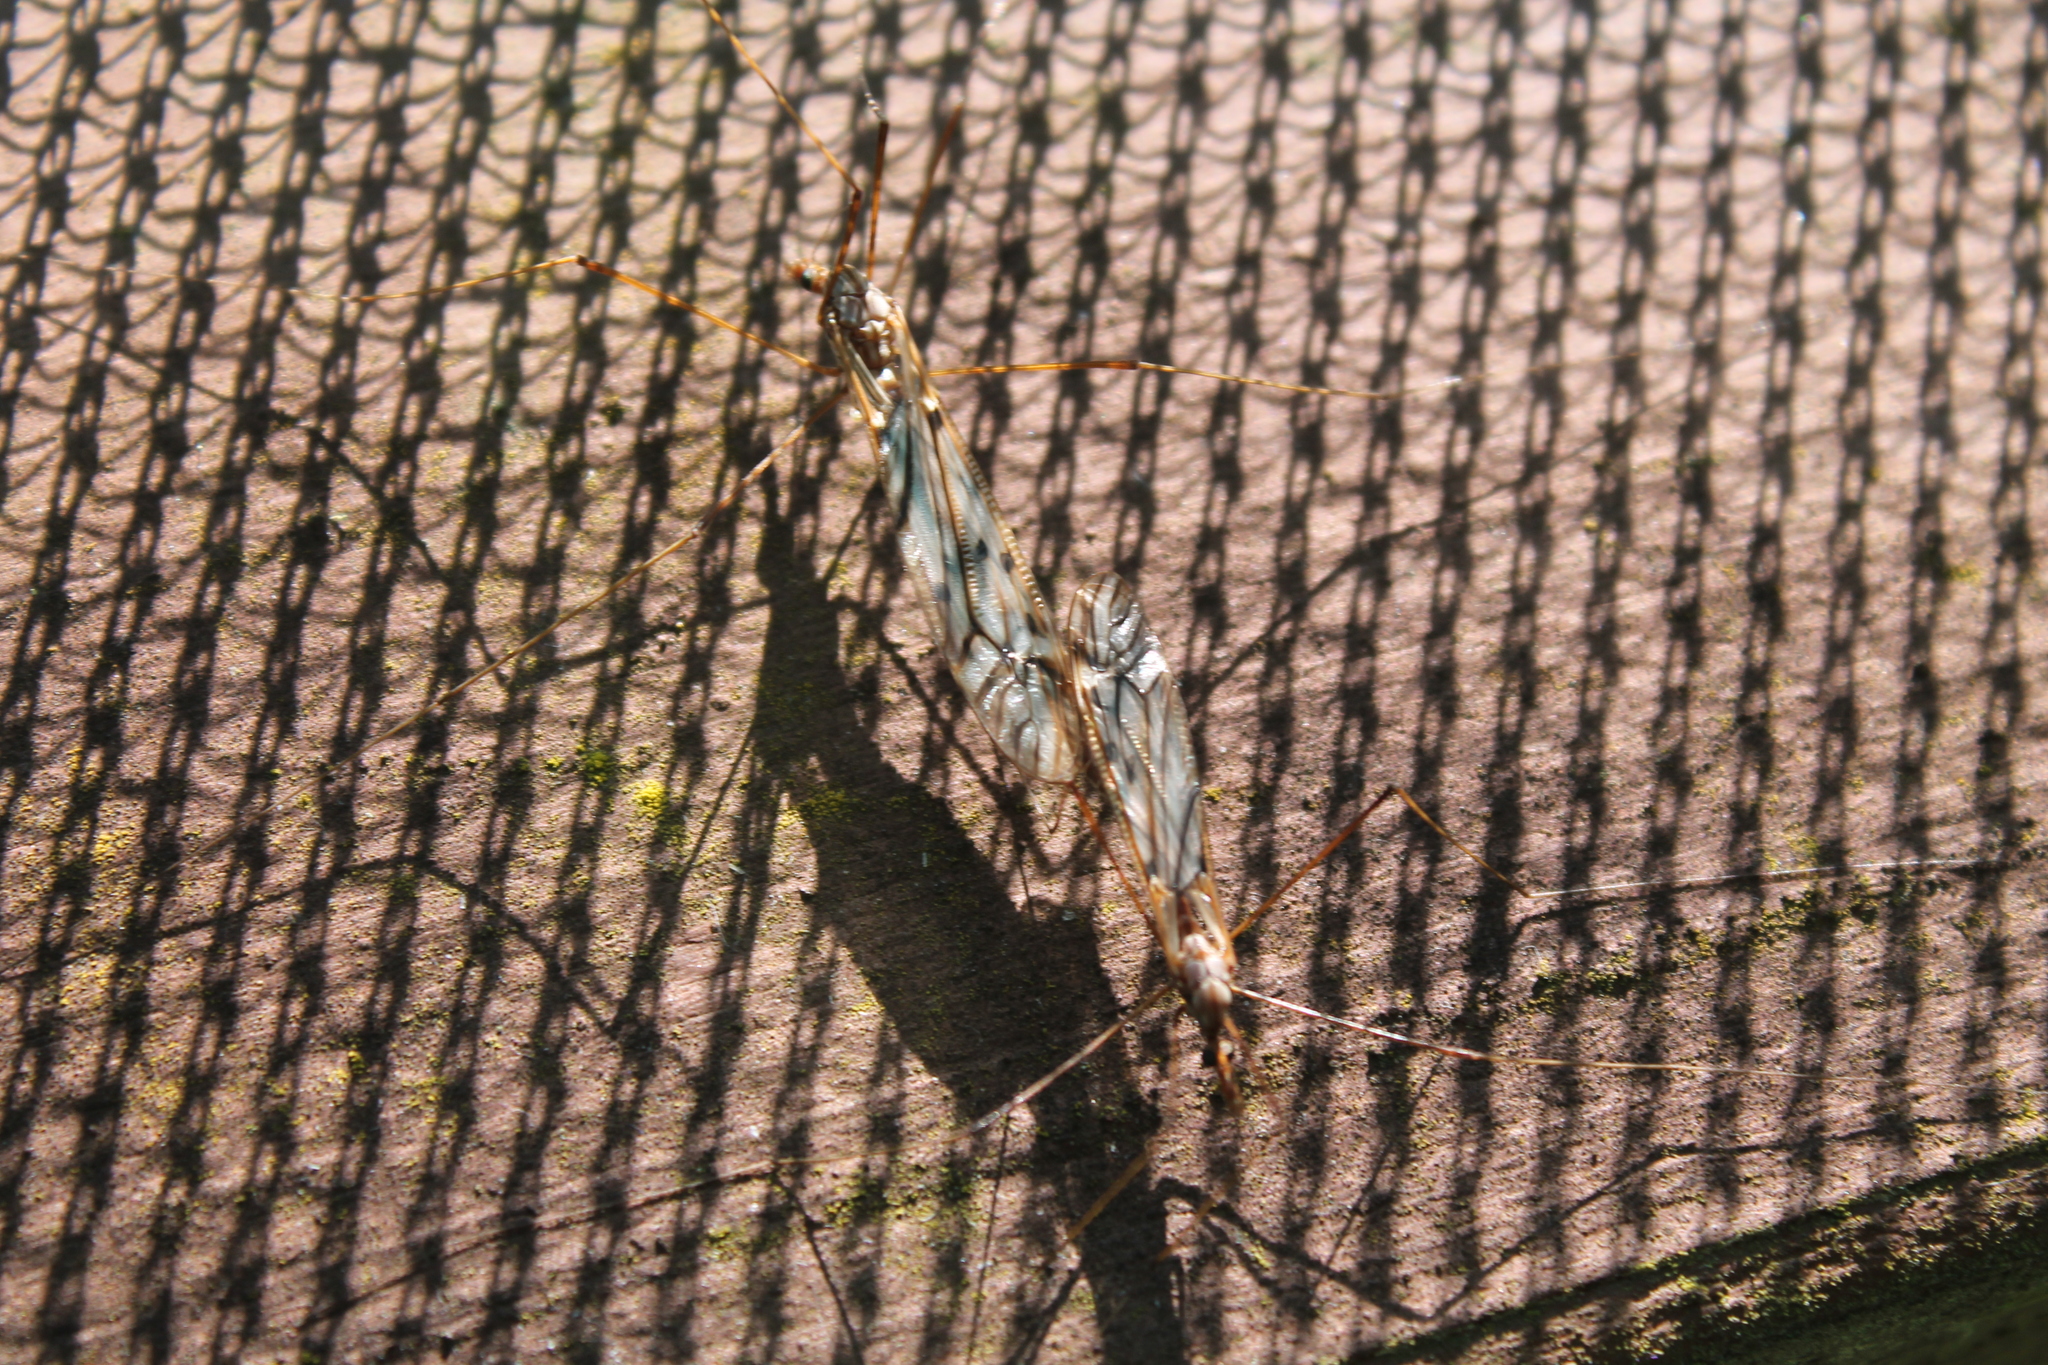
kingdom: Animalia
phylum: Arthropoda
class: Insecta
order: Diptera
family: Tipulidae
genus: Zelandotipula
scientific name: Zelandotipula novarae
